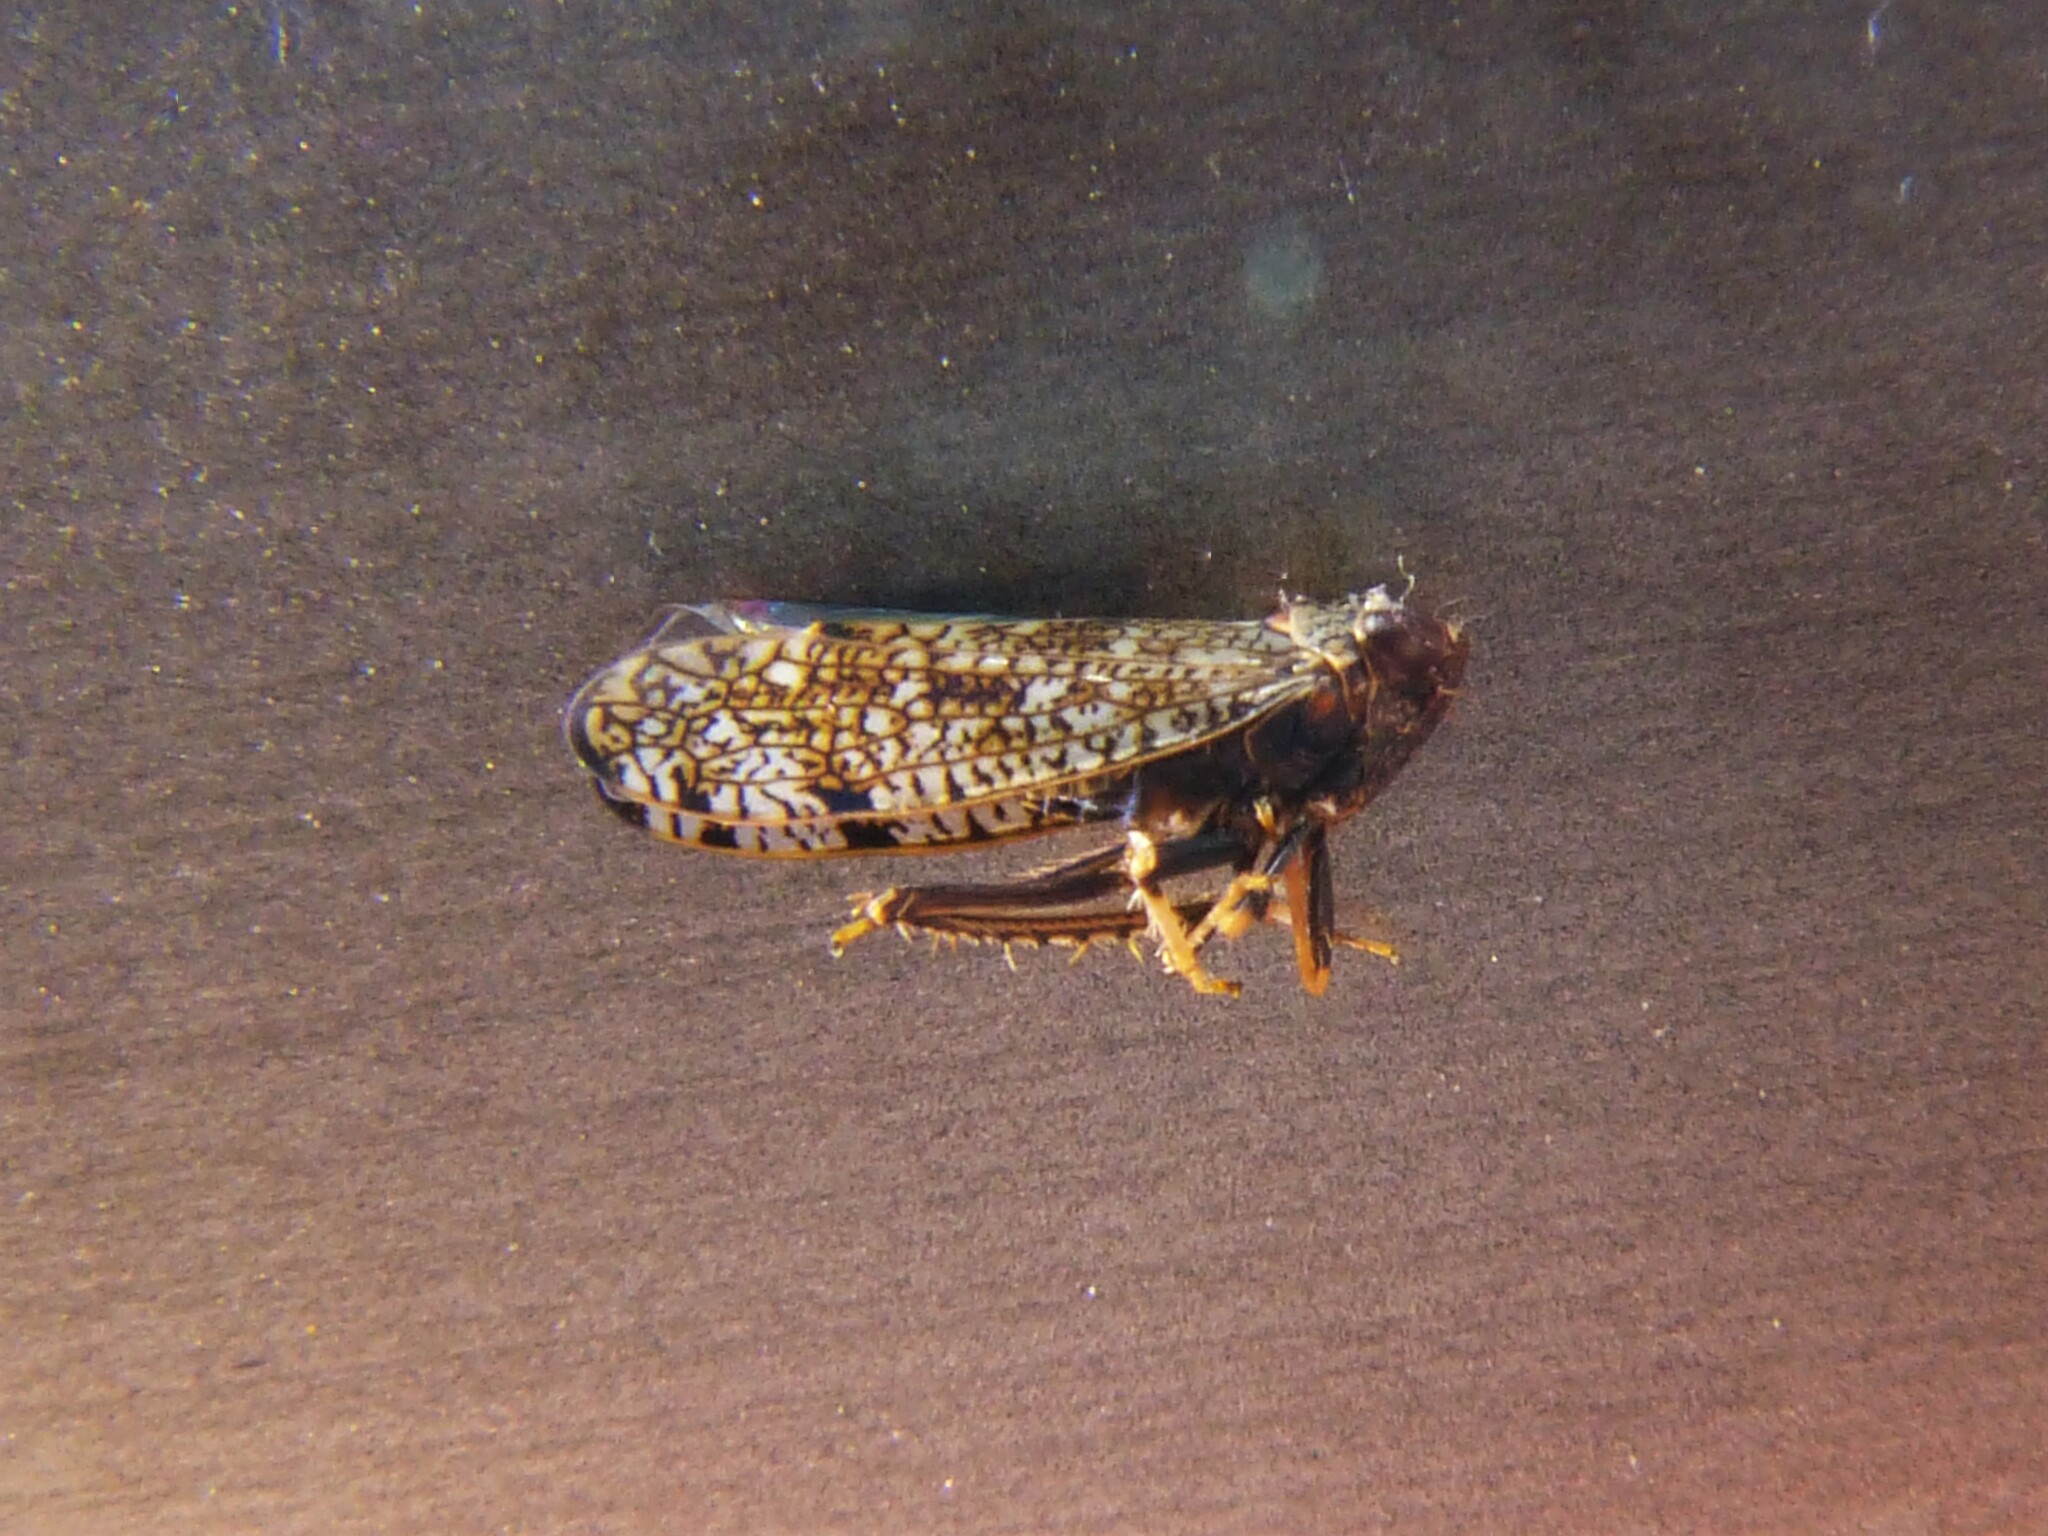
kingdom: Animalia
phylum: Arthropoda
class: Insecta
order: Hemiptera
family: Cicadellidae
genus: Orientus
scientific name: Orientus ishidae
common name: Japanese leafhopper
